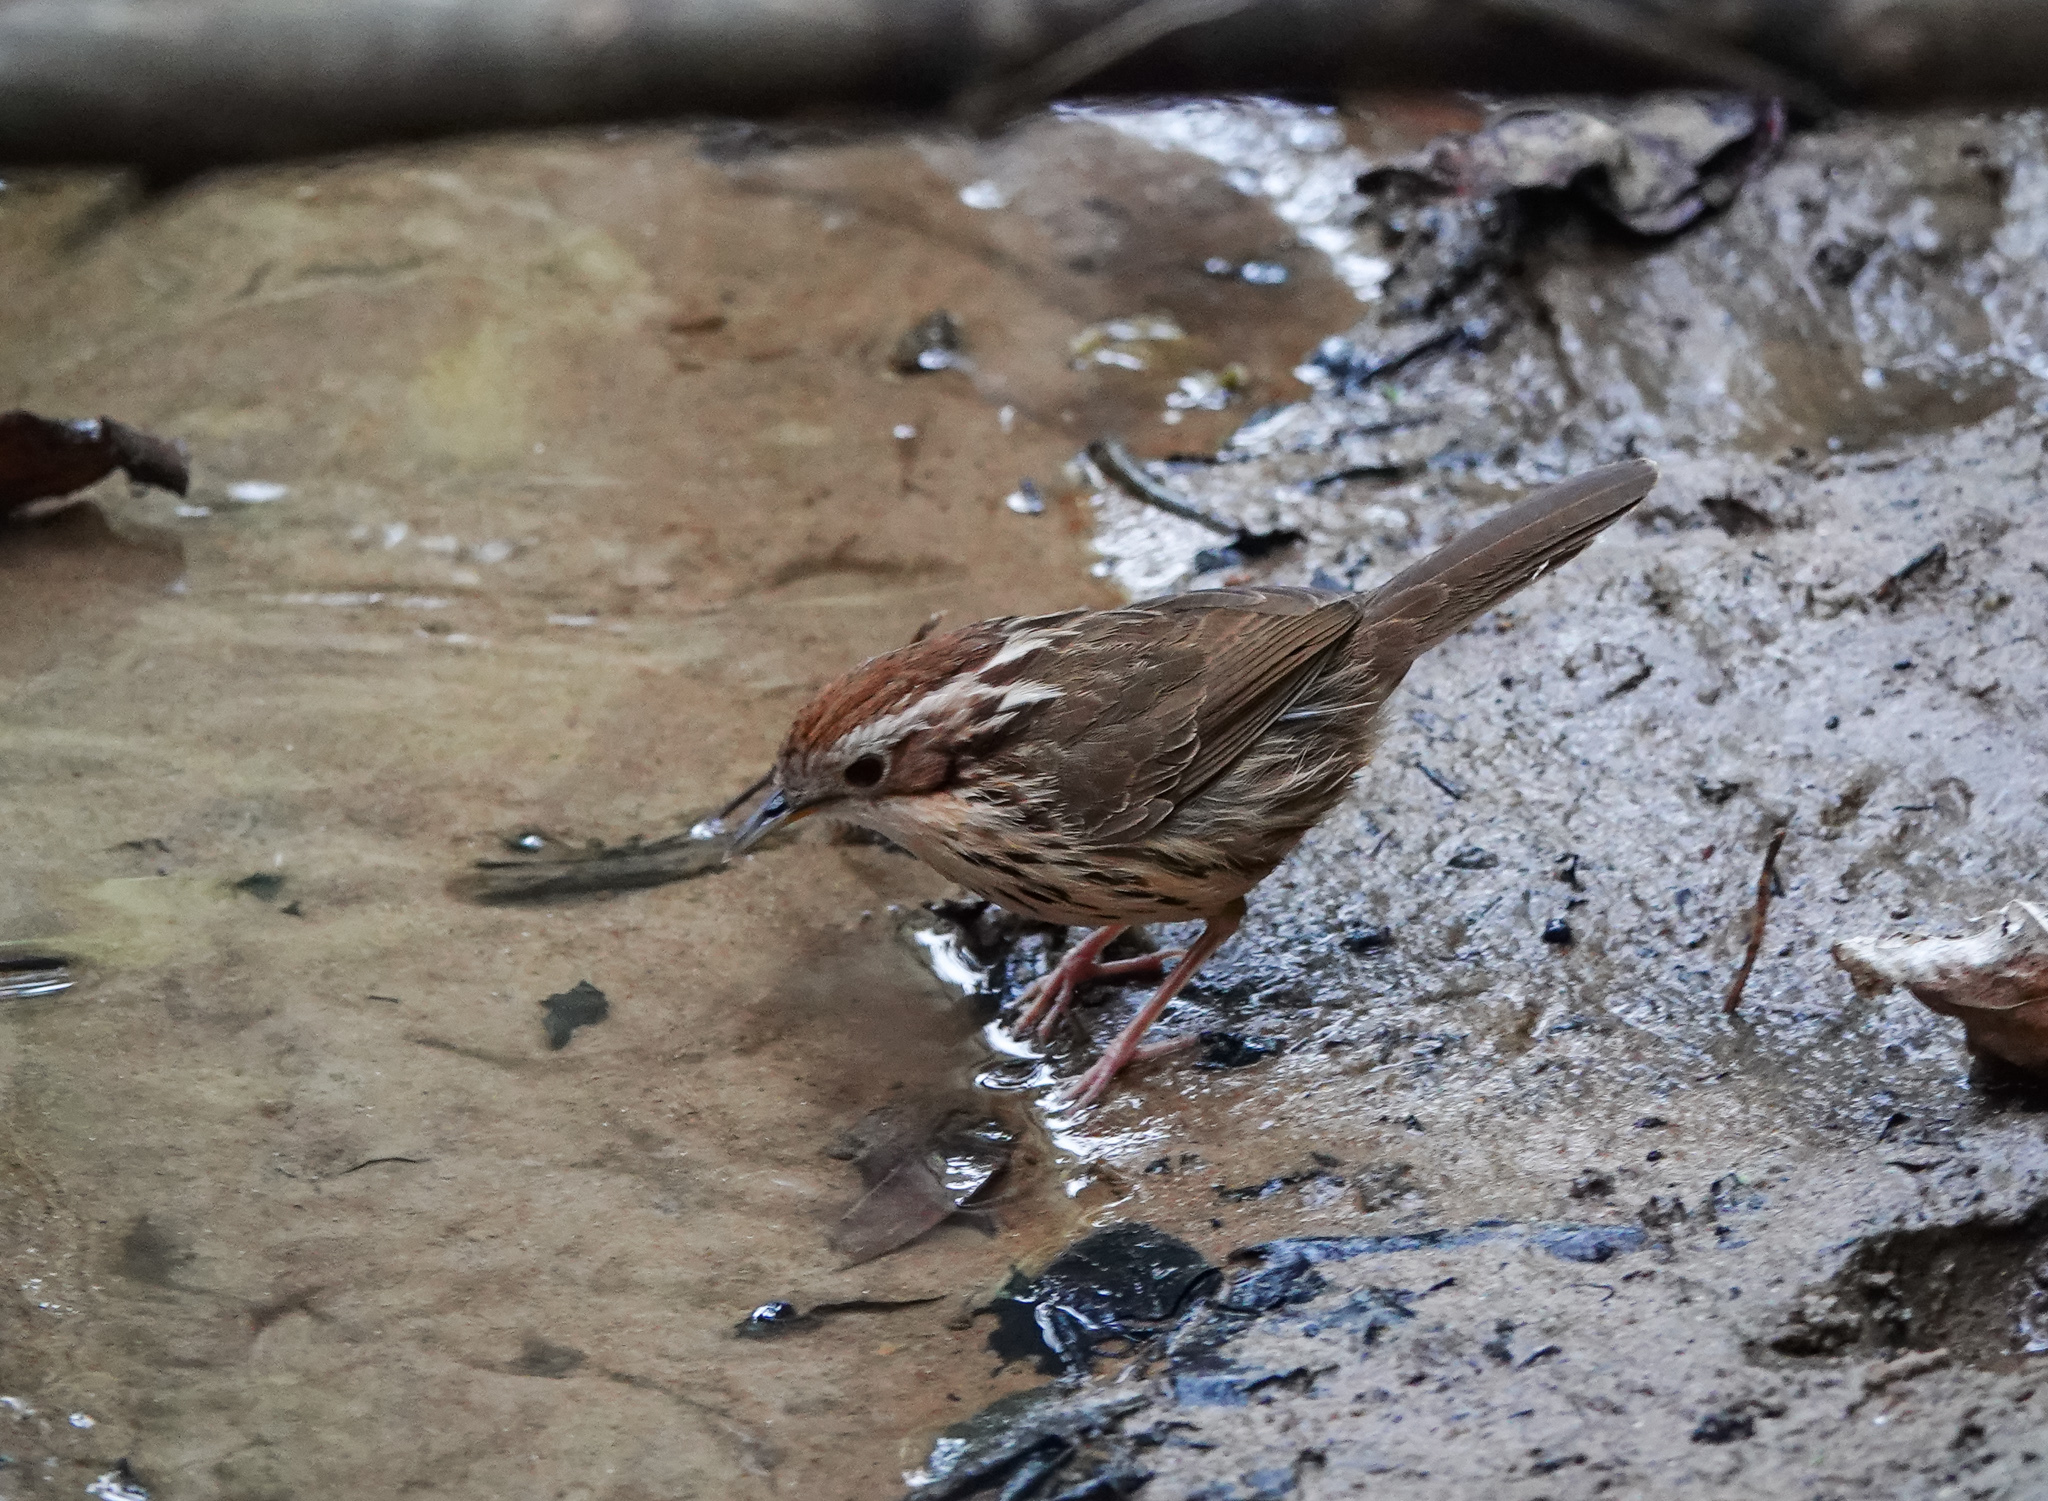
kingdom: Animalia
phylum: Chordata
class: Aves
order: Passeriformes
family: Pellorneidae
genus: Pellorneum
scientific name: Pellorneum ruficeps
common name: Puff-throated babbler
